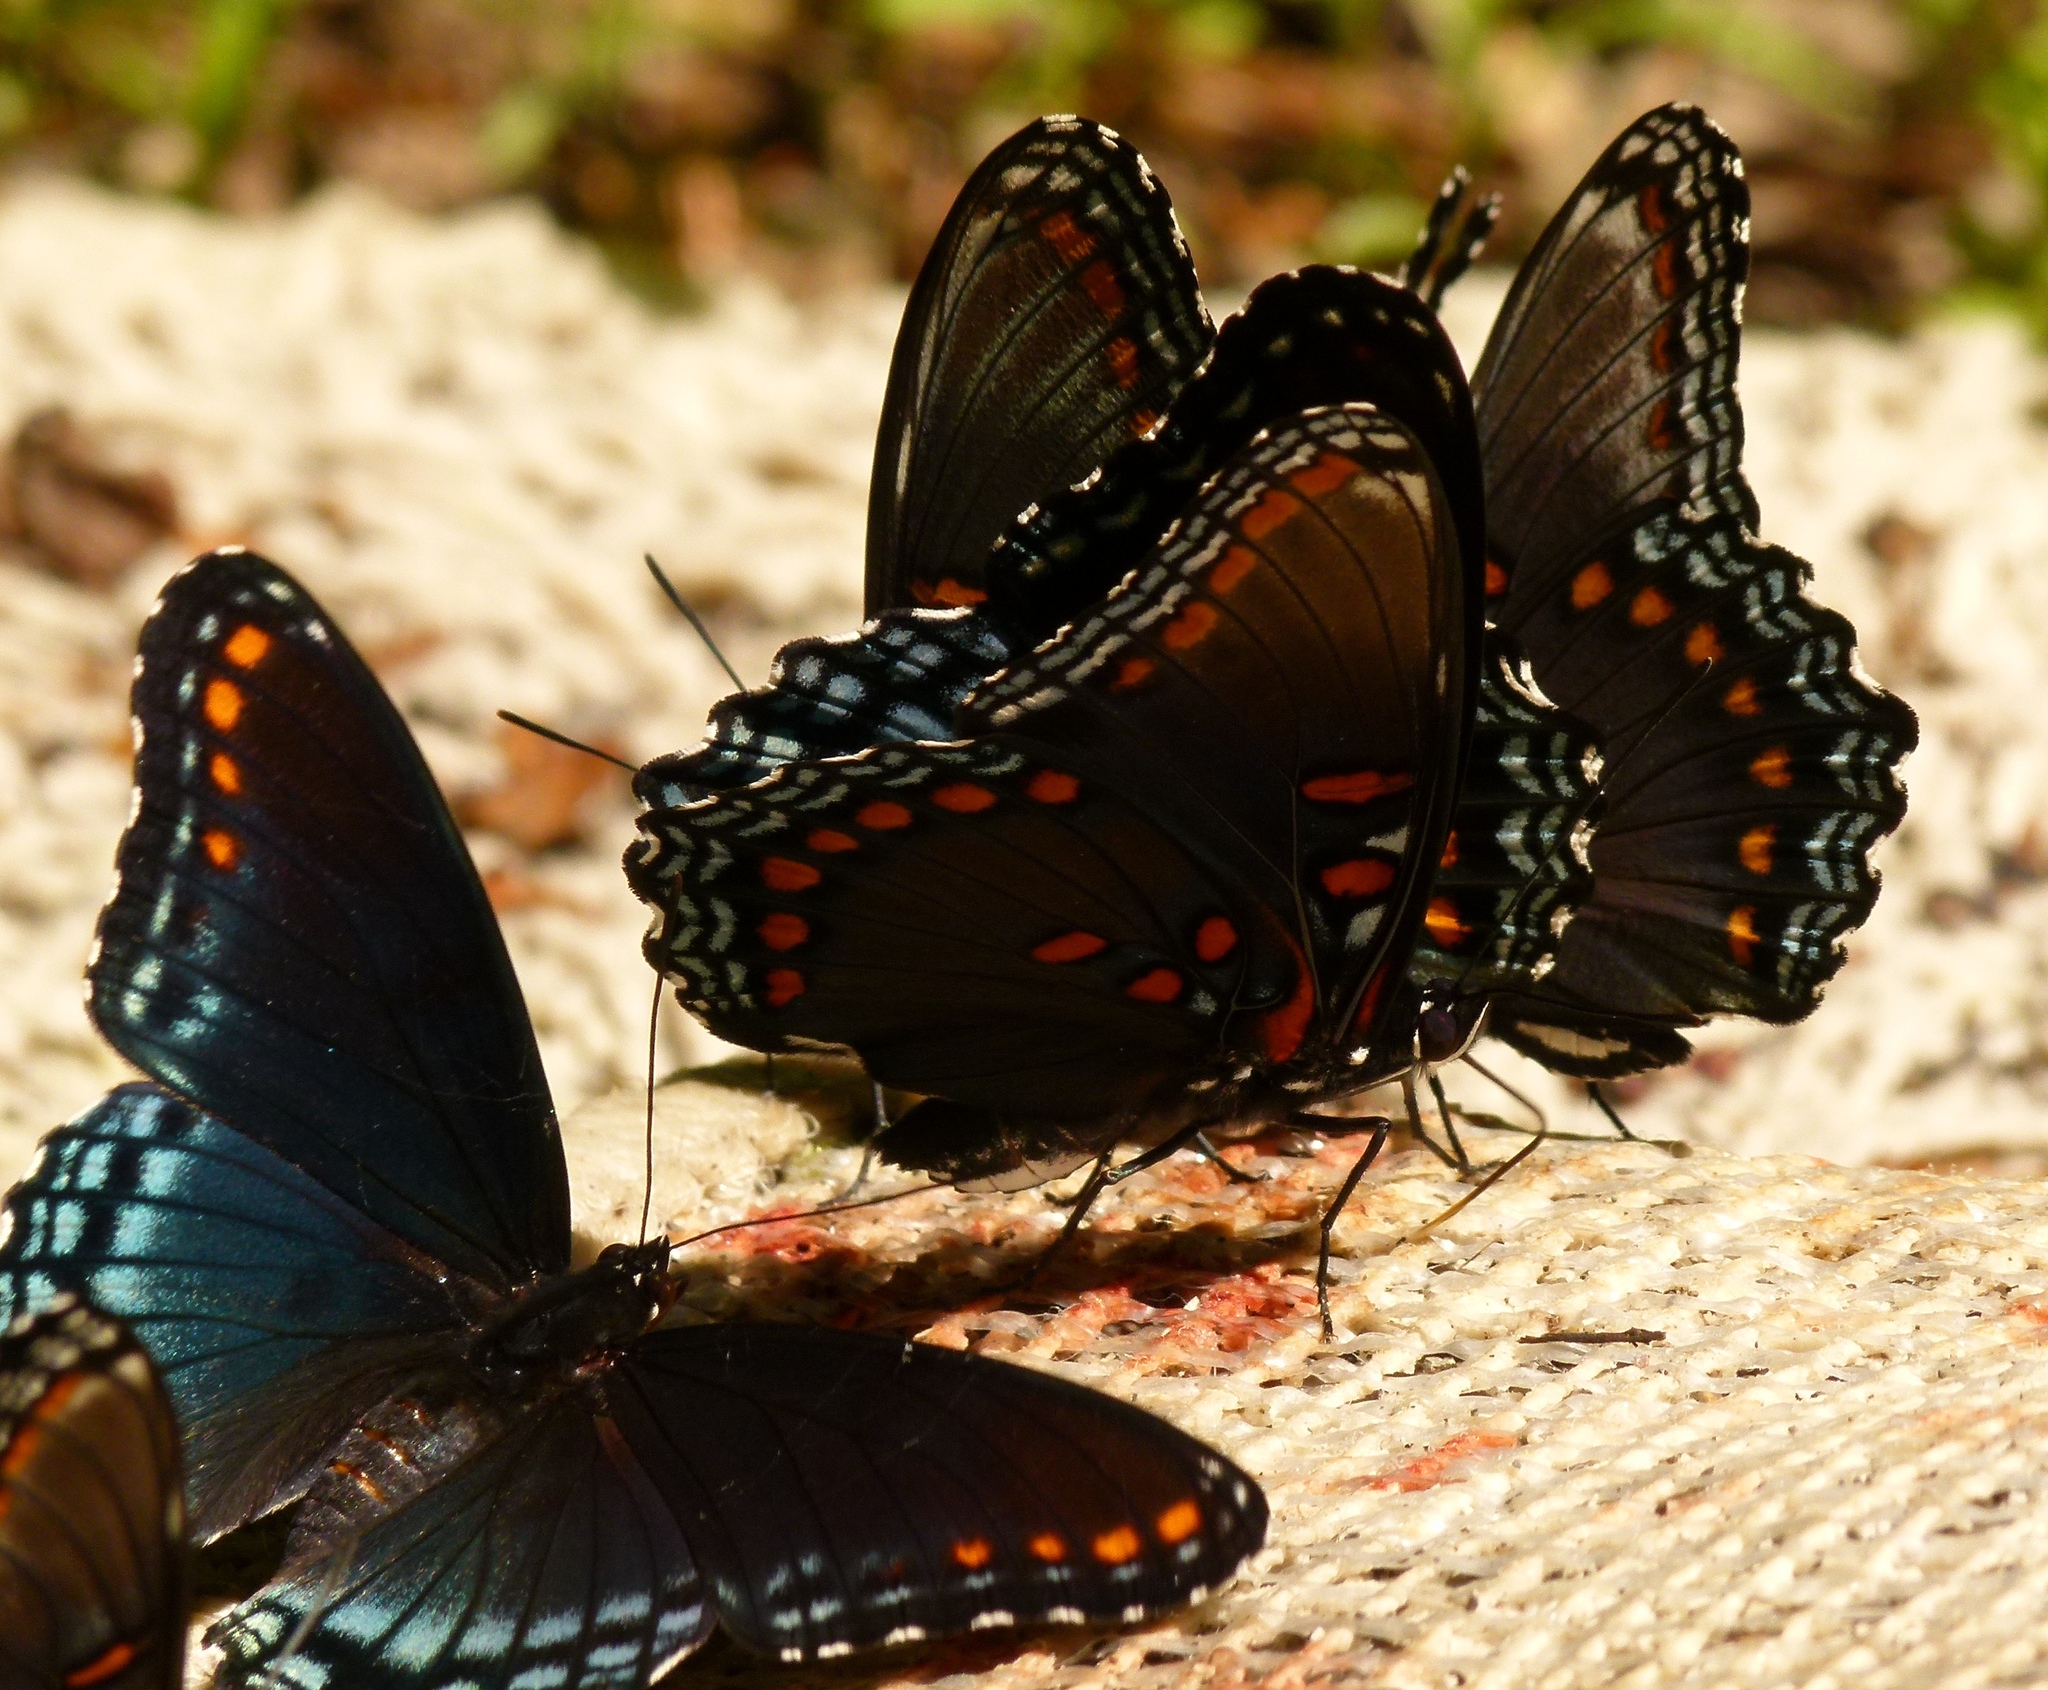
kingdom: Animalia
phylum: Arthropoda
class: Insecta
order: Lepidoptera
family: Nymphalidae
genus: Limenitis
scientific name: Limenitis astyanax
